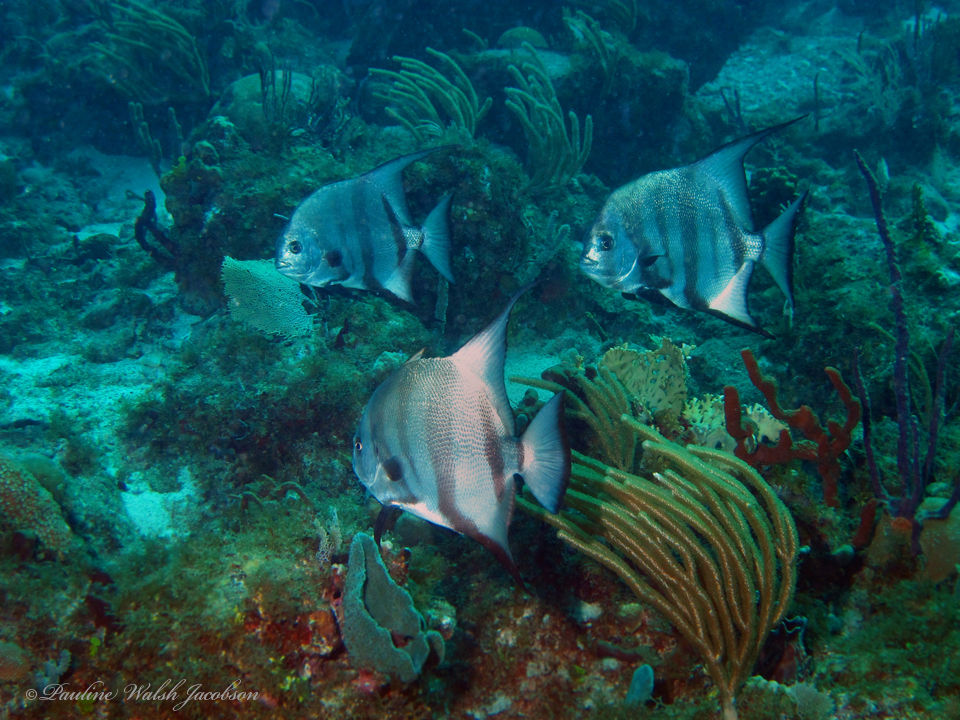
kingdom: Animalia
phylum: Chordata
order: Perciformes
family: Ephippidae
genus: Chaetodipterus
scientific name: Chaetodipterus faber
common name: Ocean cobbler
